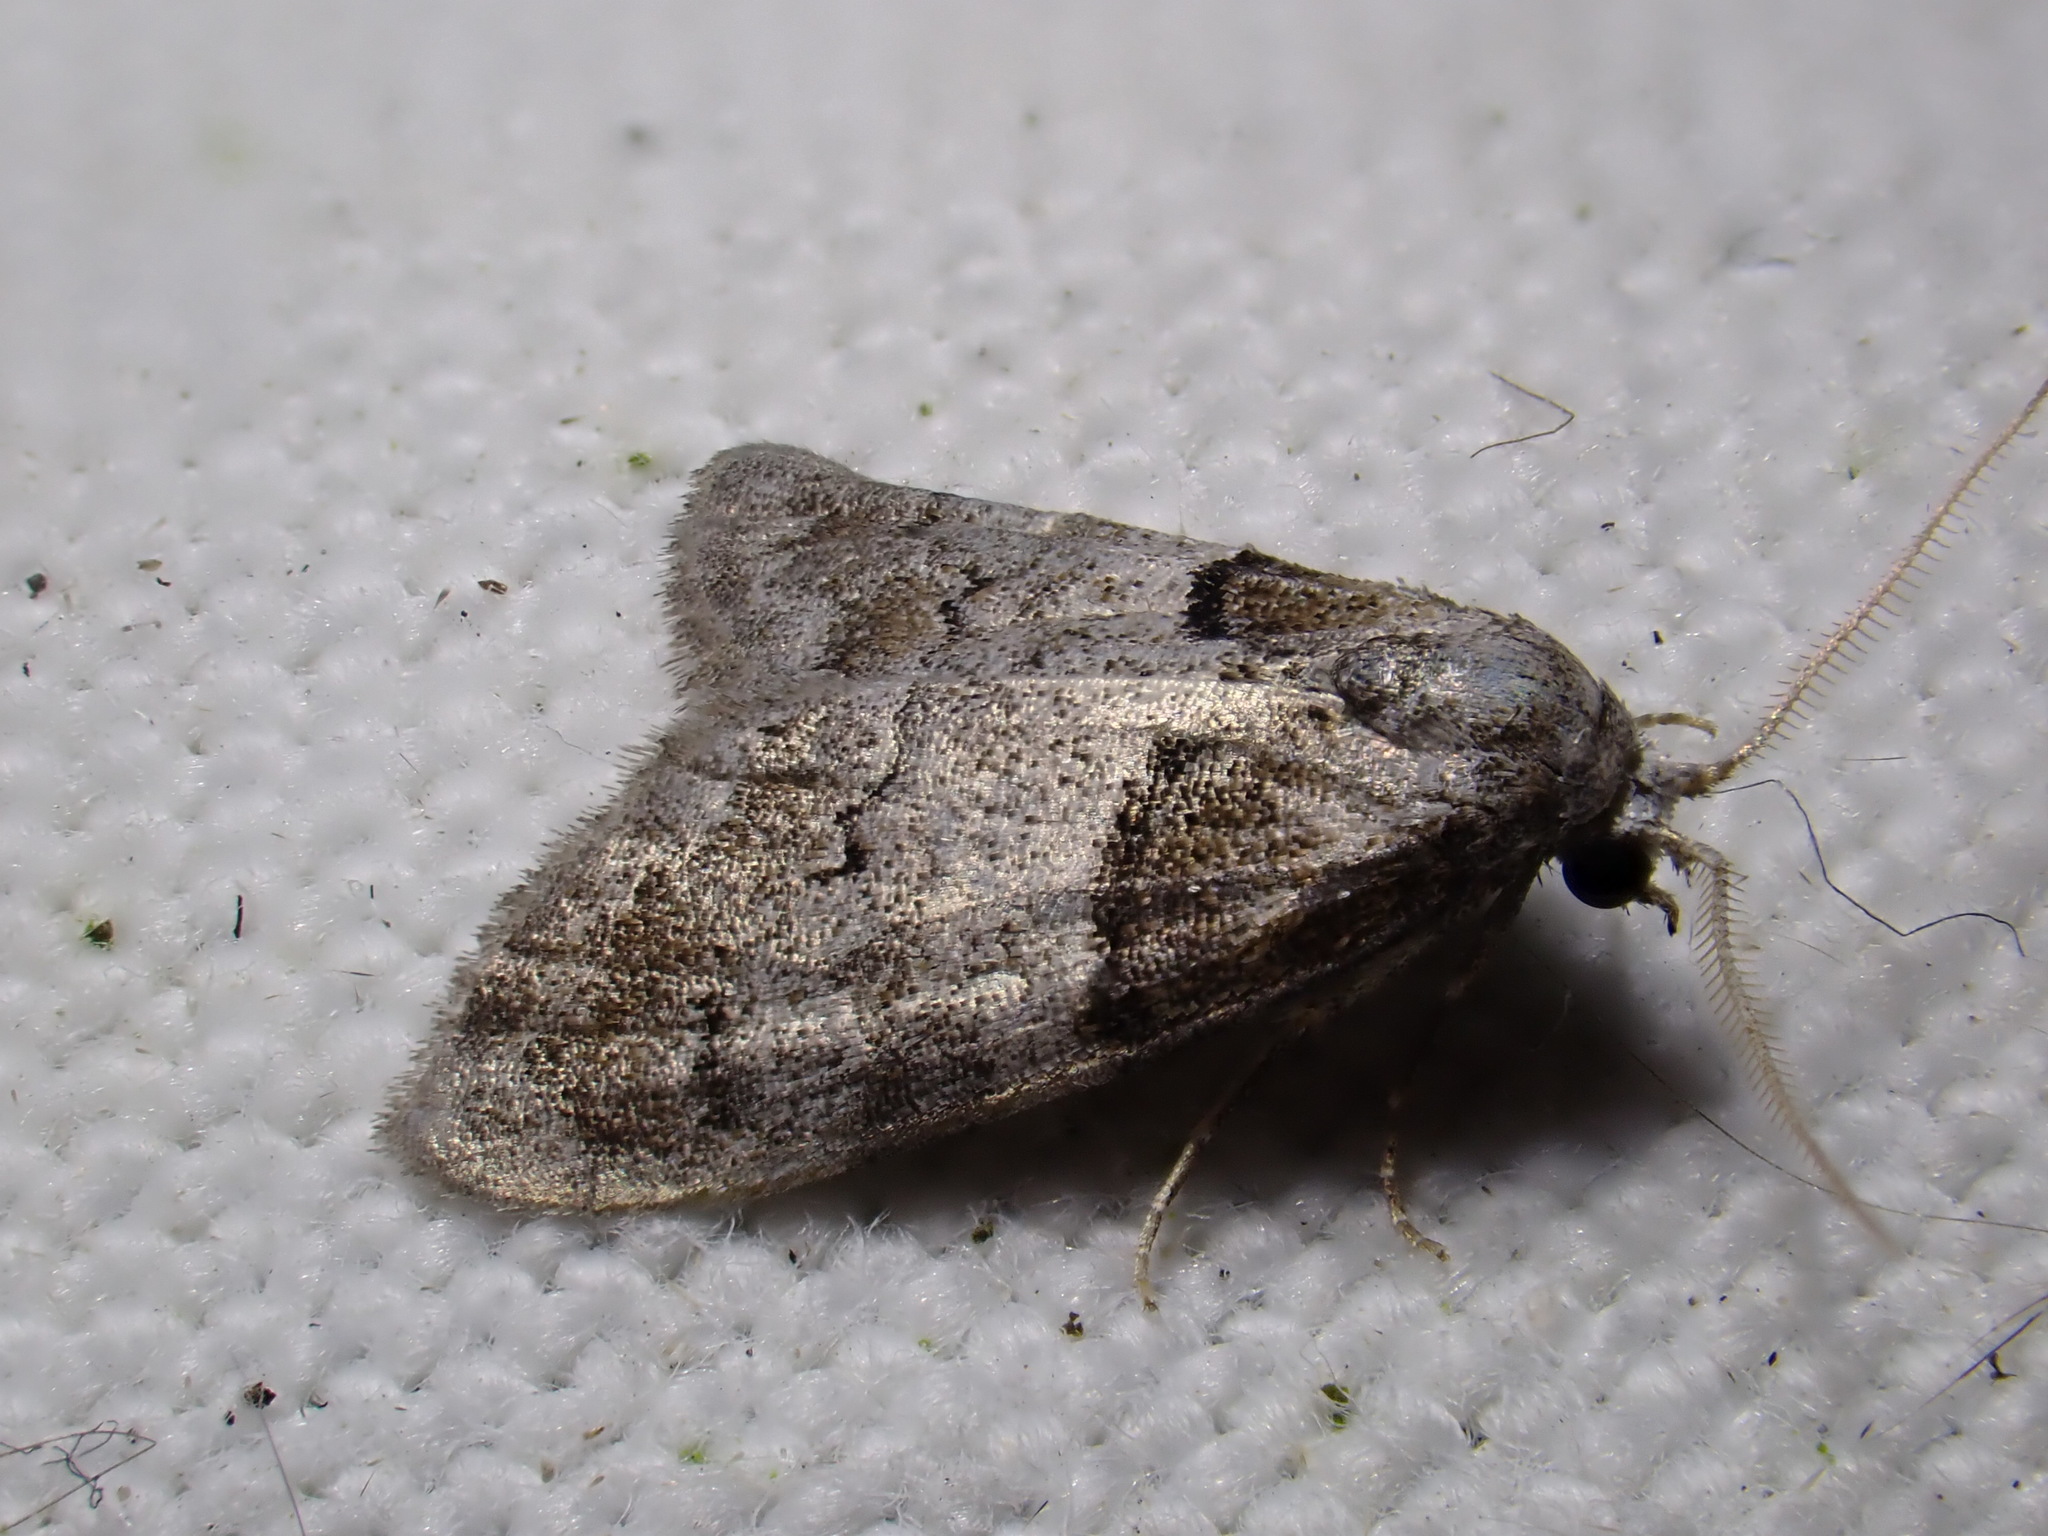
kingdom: Animalia
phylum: Arthropoda
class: Insecta
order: Lepidoptera
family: Nolidae
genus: Nola
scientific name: Nola cucullatella
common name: Short-cloaked moth
